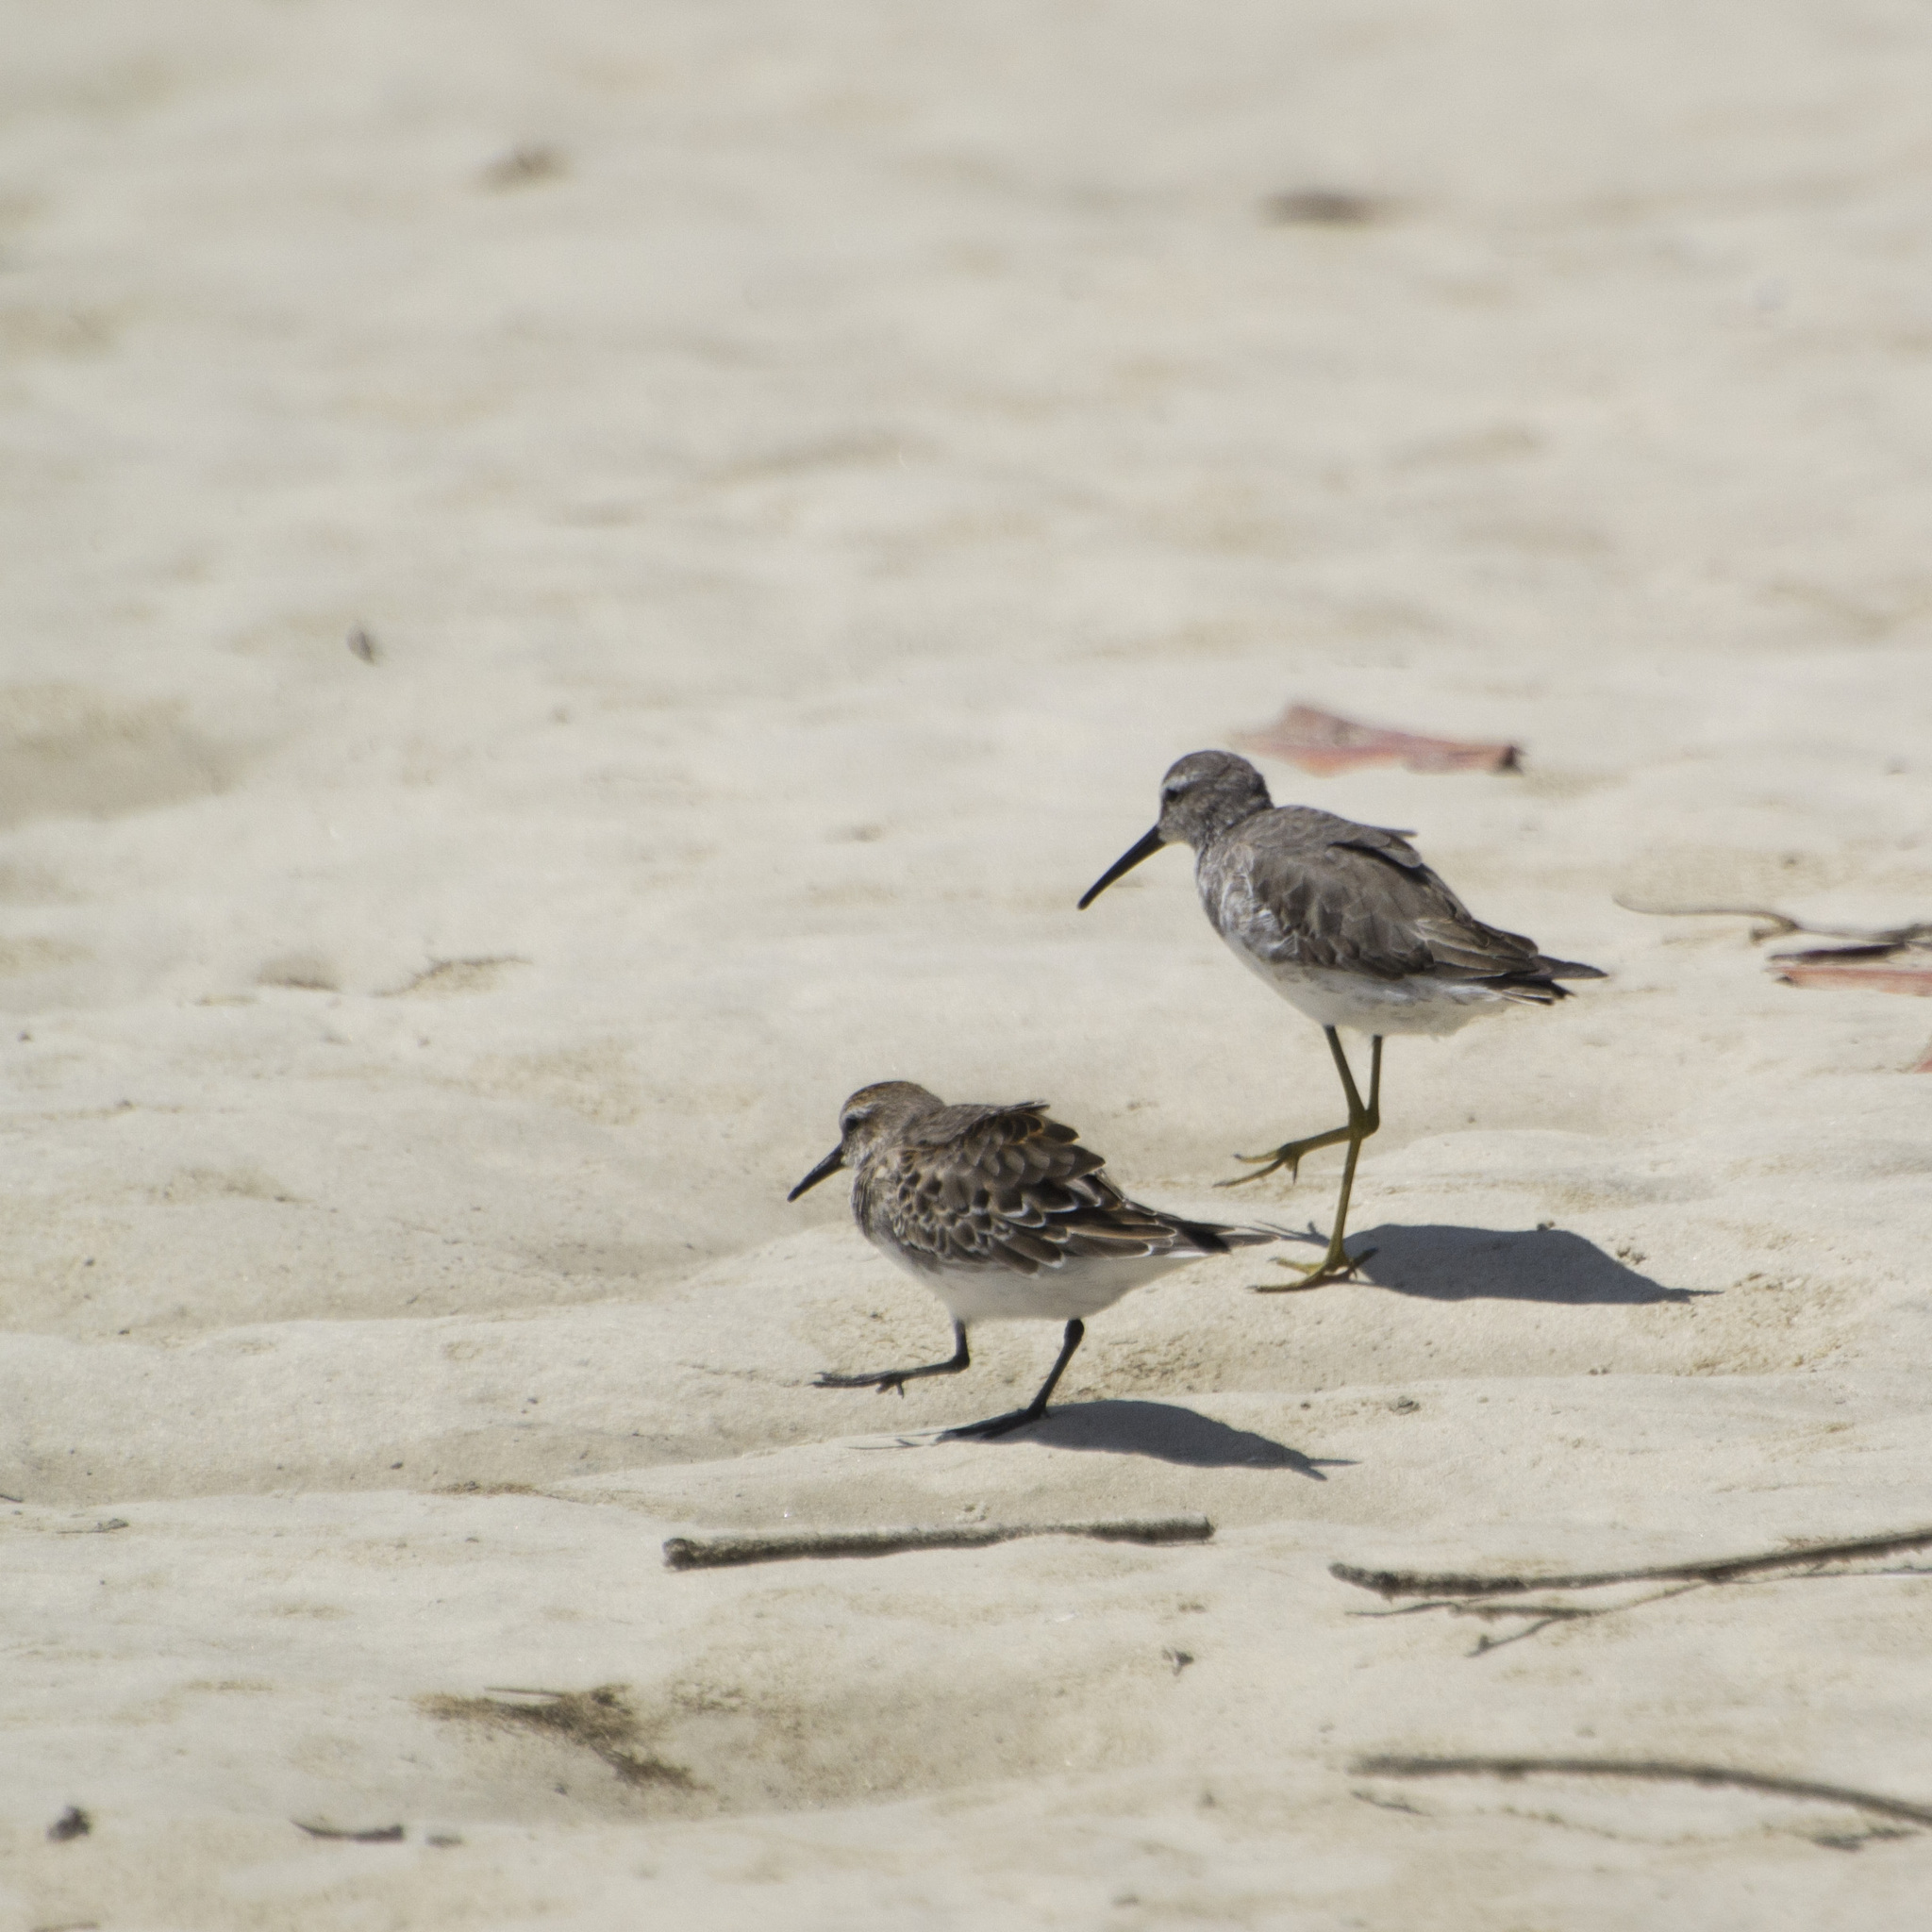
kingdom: Animalia
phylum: Chordata
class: Aves
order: Charadriiformes
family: Scolopacidae
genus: Calidris
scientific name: Calidris fuscicollis
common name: White-rumped sandpiper
